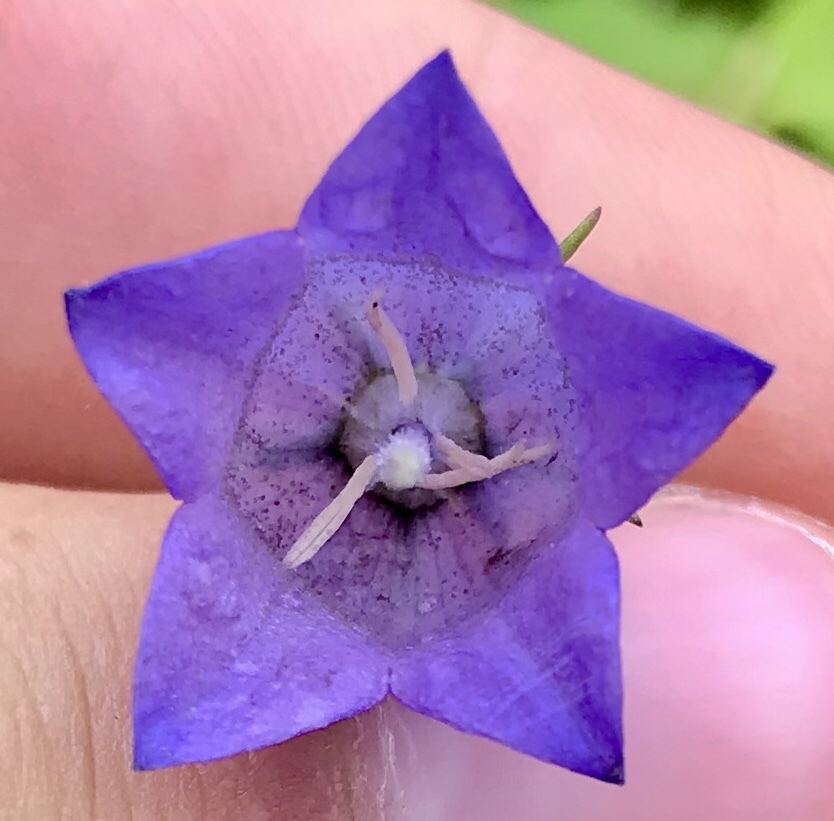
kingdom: Plantae
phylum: Tracheophyta
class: Magnoliopsida
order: Asterales
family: Campanulaceae
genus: Campanula
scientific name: Campanula alaskana
